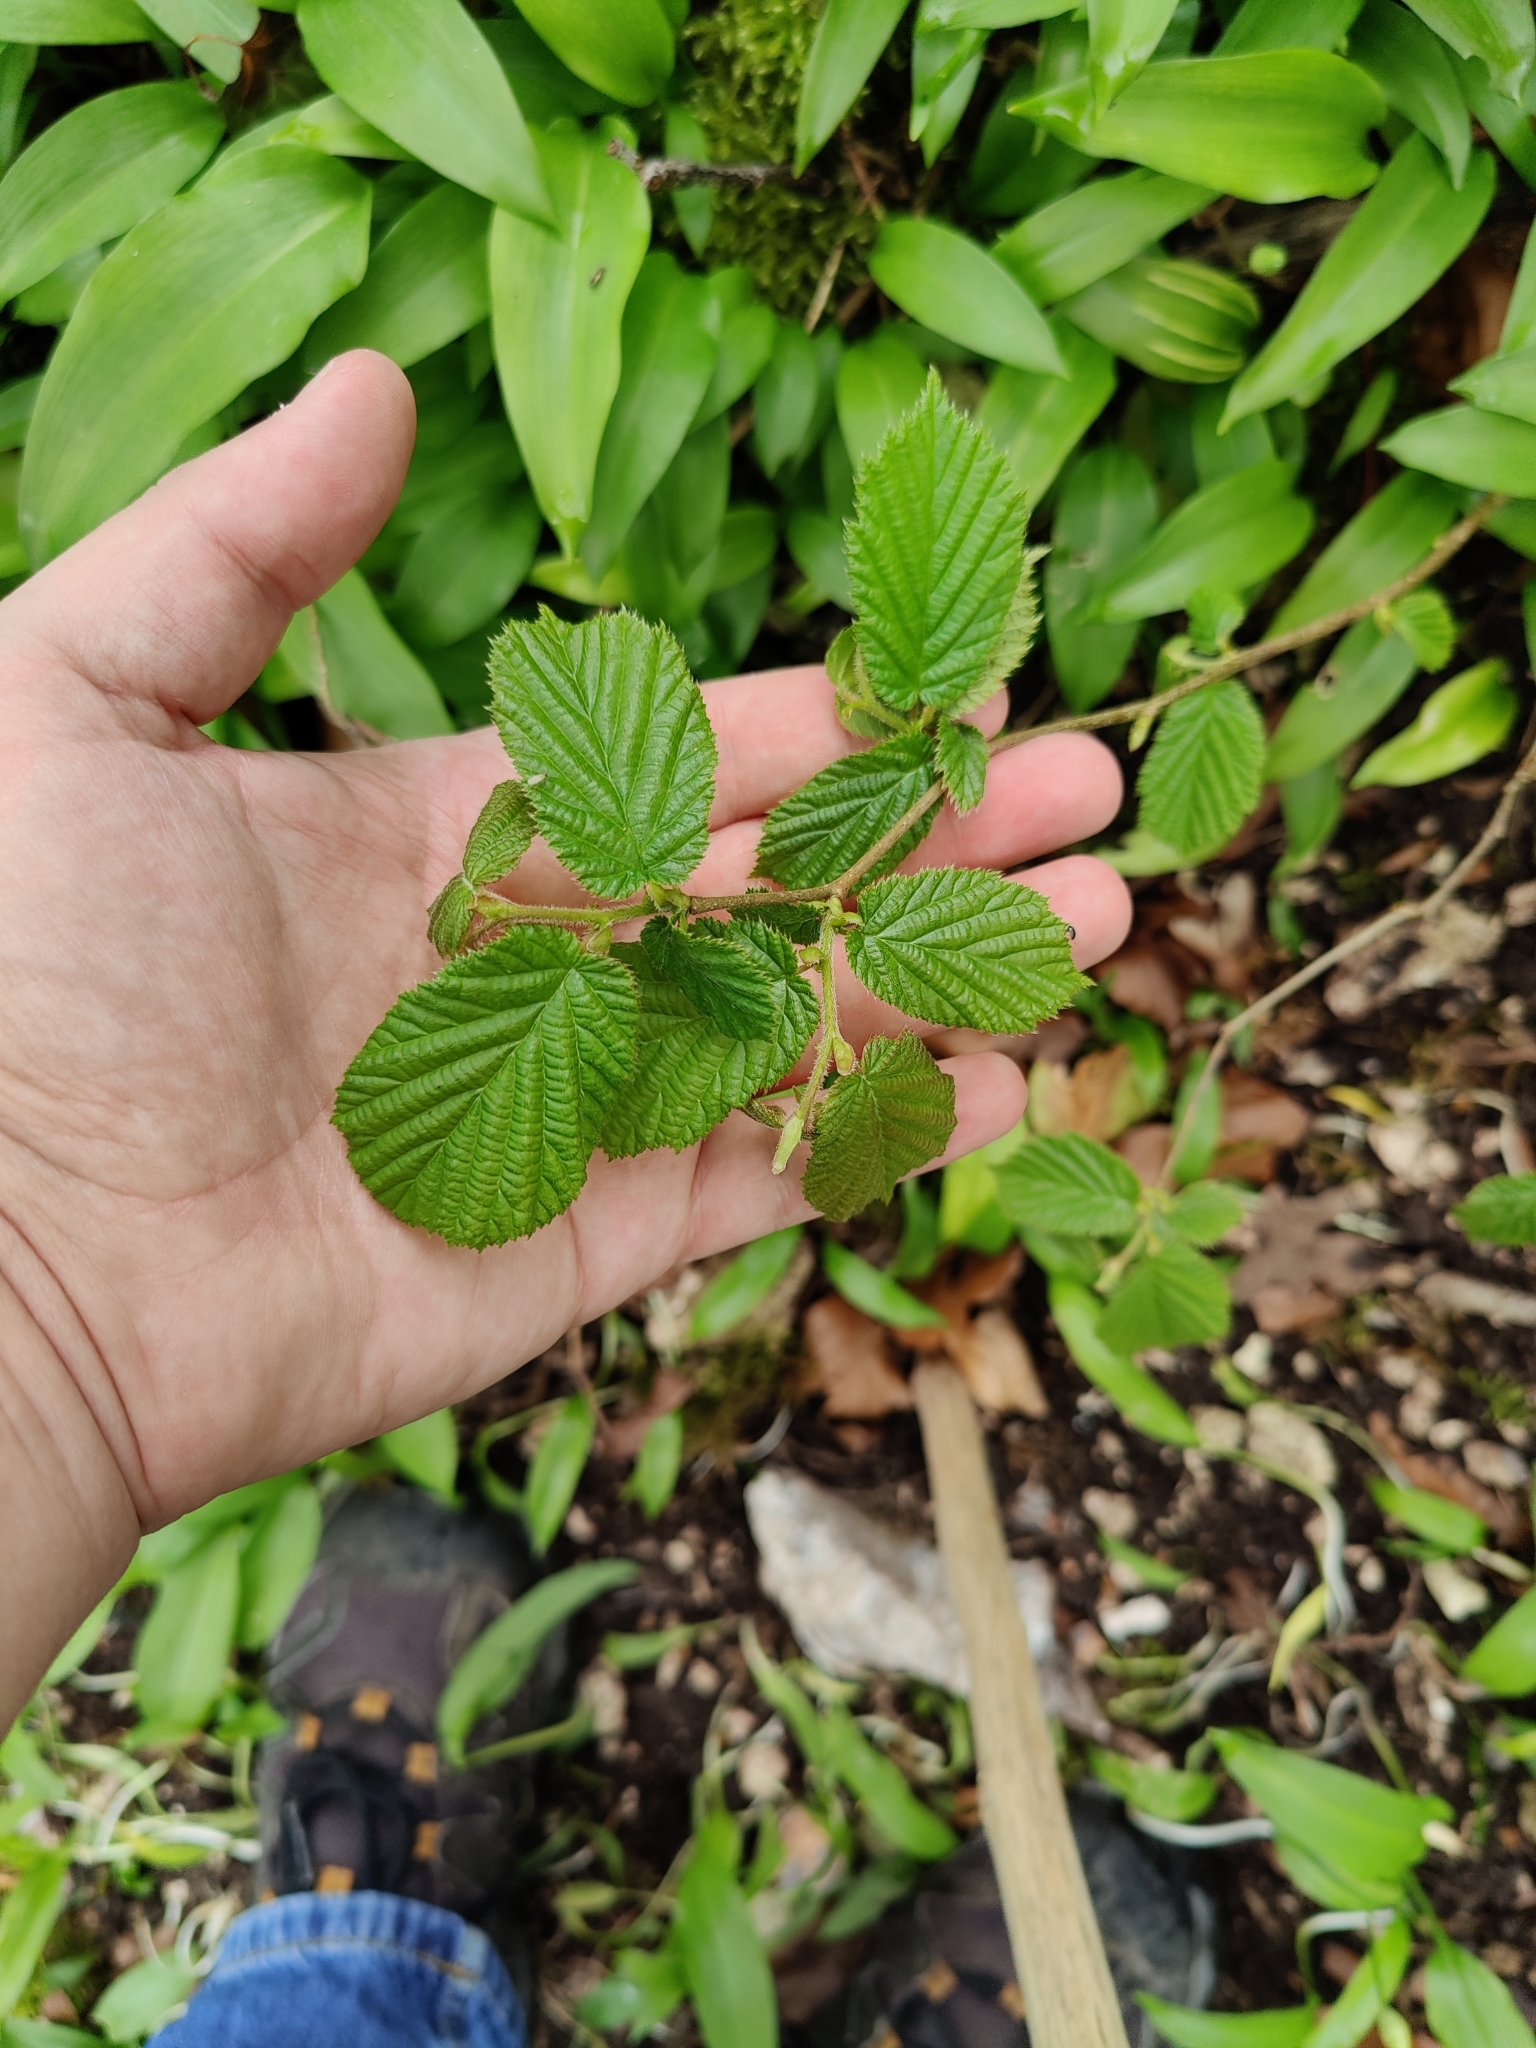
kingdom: Plantae
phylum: Tracheophyta
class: Magnoliopsida
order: Fagales
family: Betulaceae
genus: Corylus
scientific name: Corylus avellana
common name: European hazel
